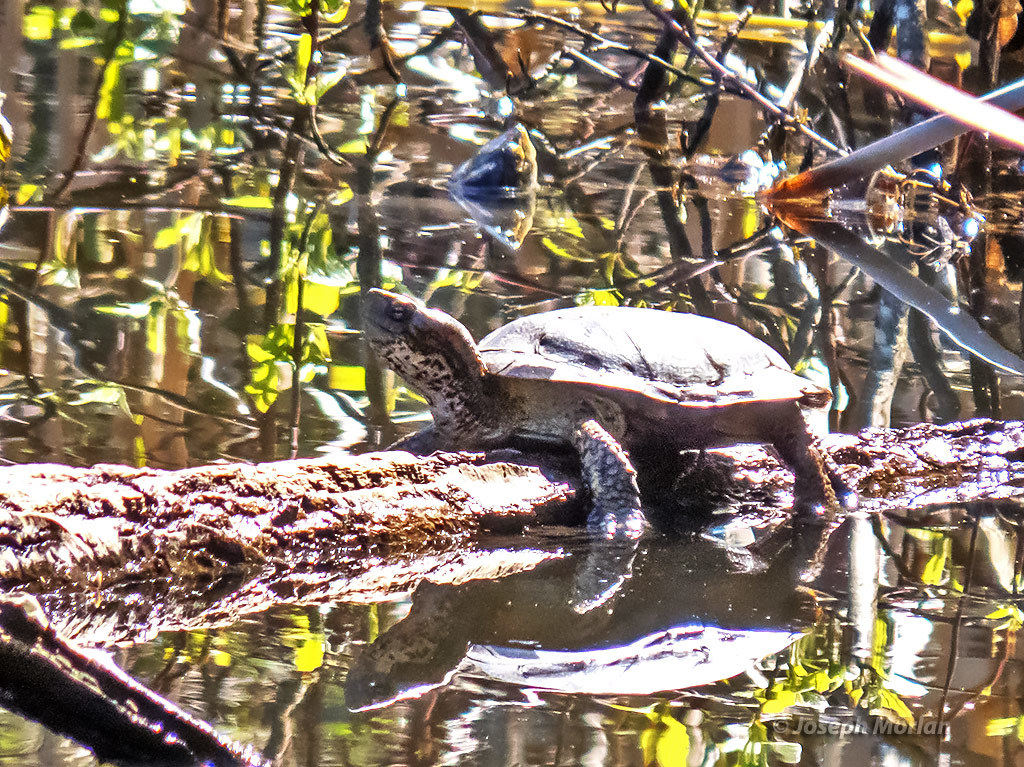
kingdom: Animalia
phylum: Chordata
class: Testudines
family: Emydidae
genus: Actinemys
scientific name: Actinemys marmorata
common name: Western pond turtle
